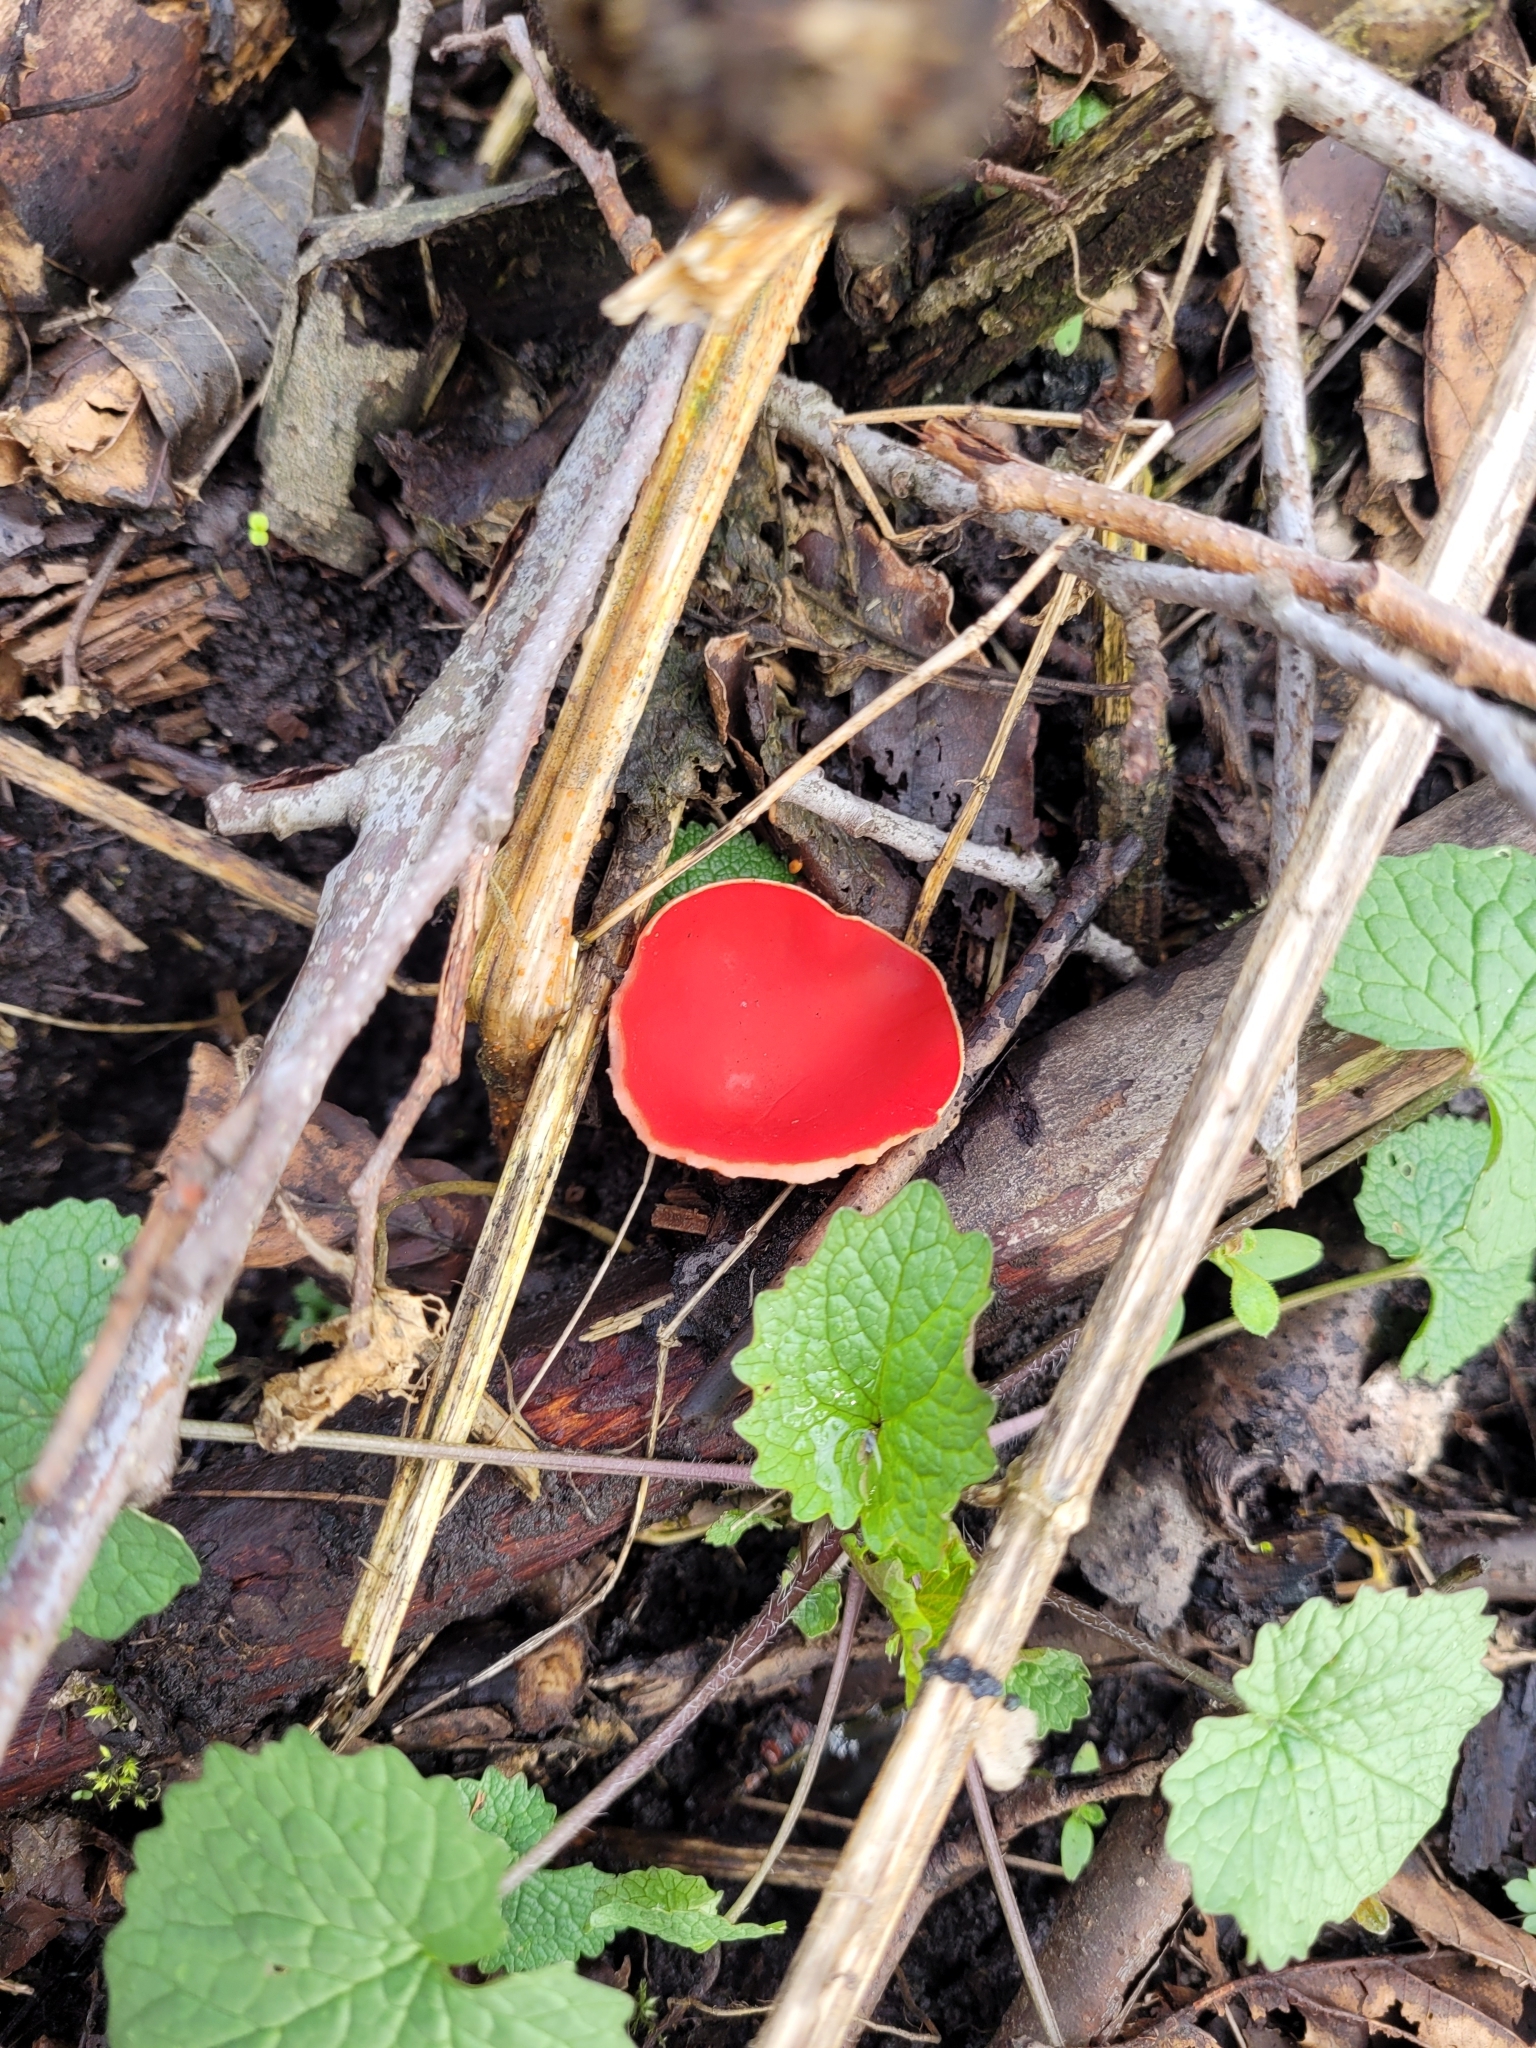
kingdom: Fungi
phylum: Ascomycota
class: Pezizomycetes
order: Pezizales
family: Sarcoscyphaceae
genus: Sarcoscypha
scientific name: Sarcoscypha
